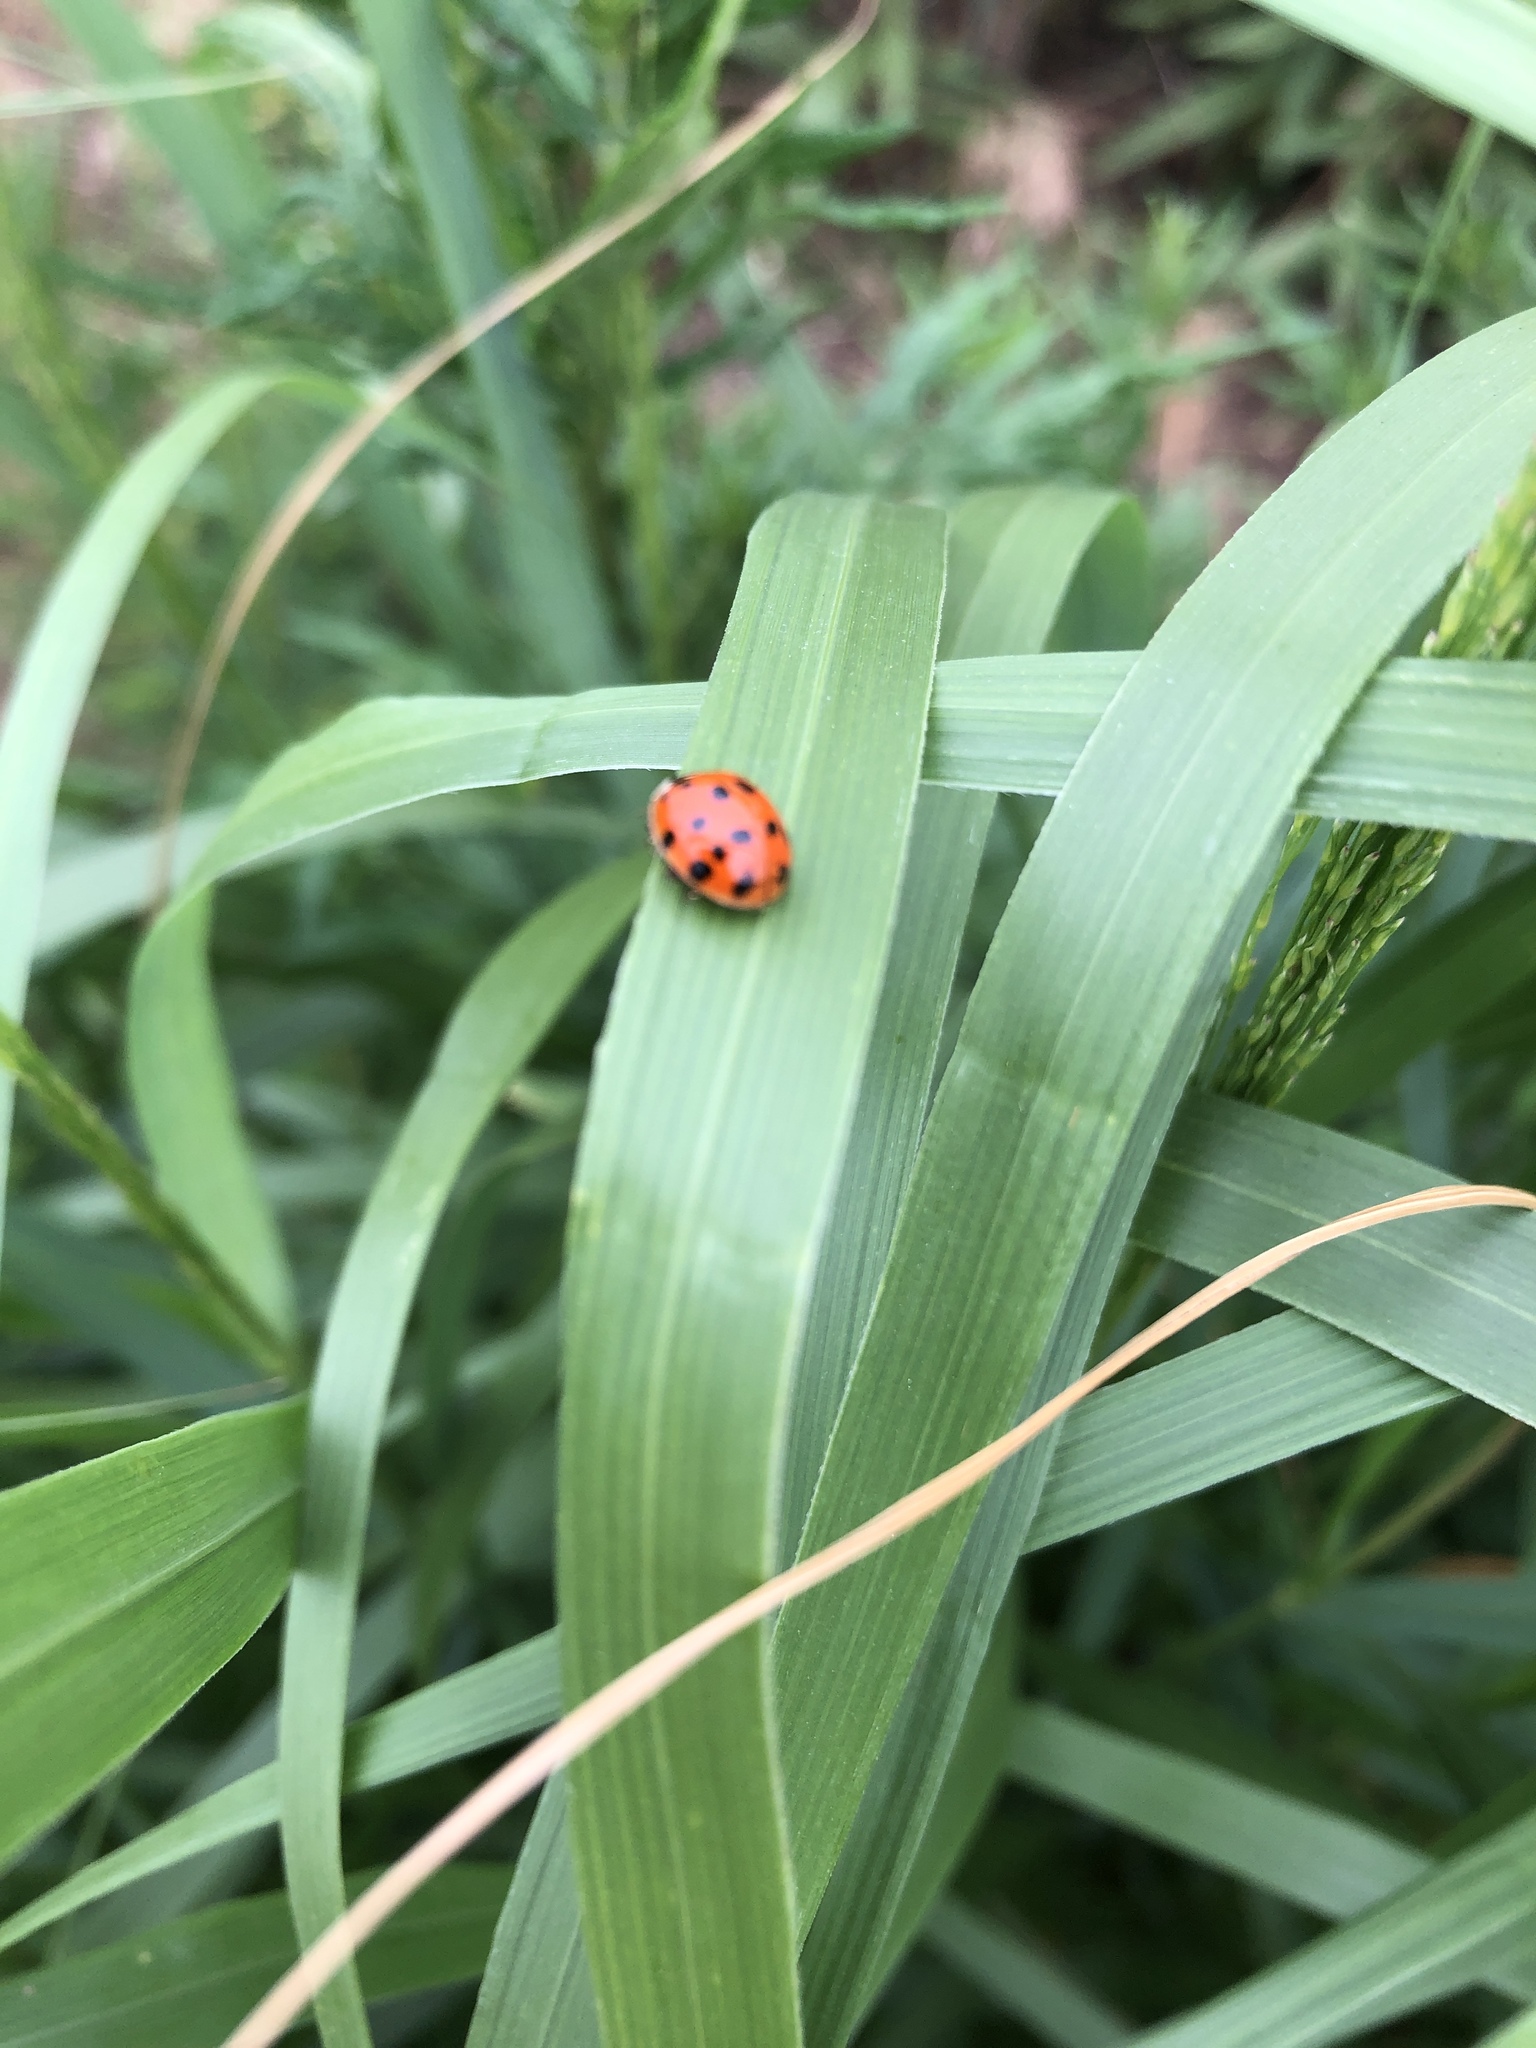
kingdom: Animalia
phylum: Arthropoda
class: Insecta
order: Coleoptera
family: Coccinellidae
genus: Harmonia
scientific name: Harmonia axyridis
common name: Harlequin ladybird
